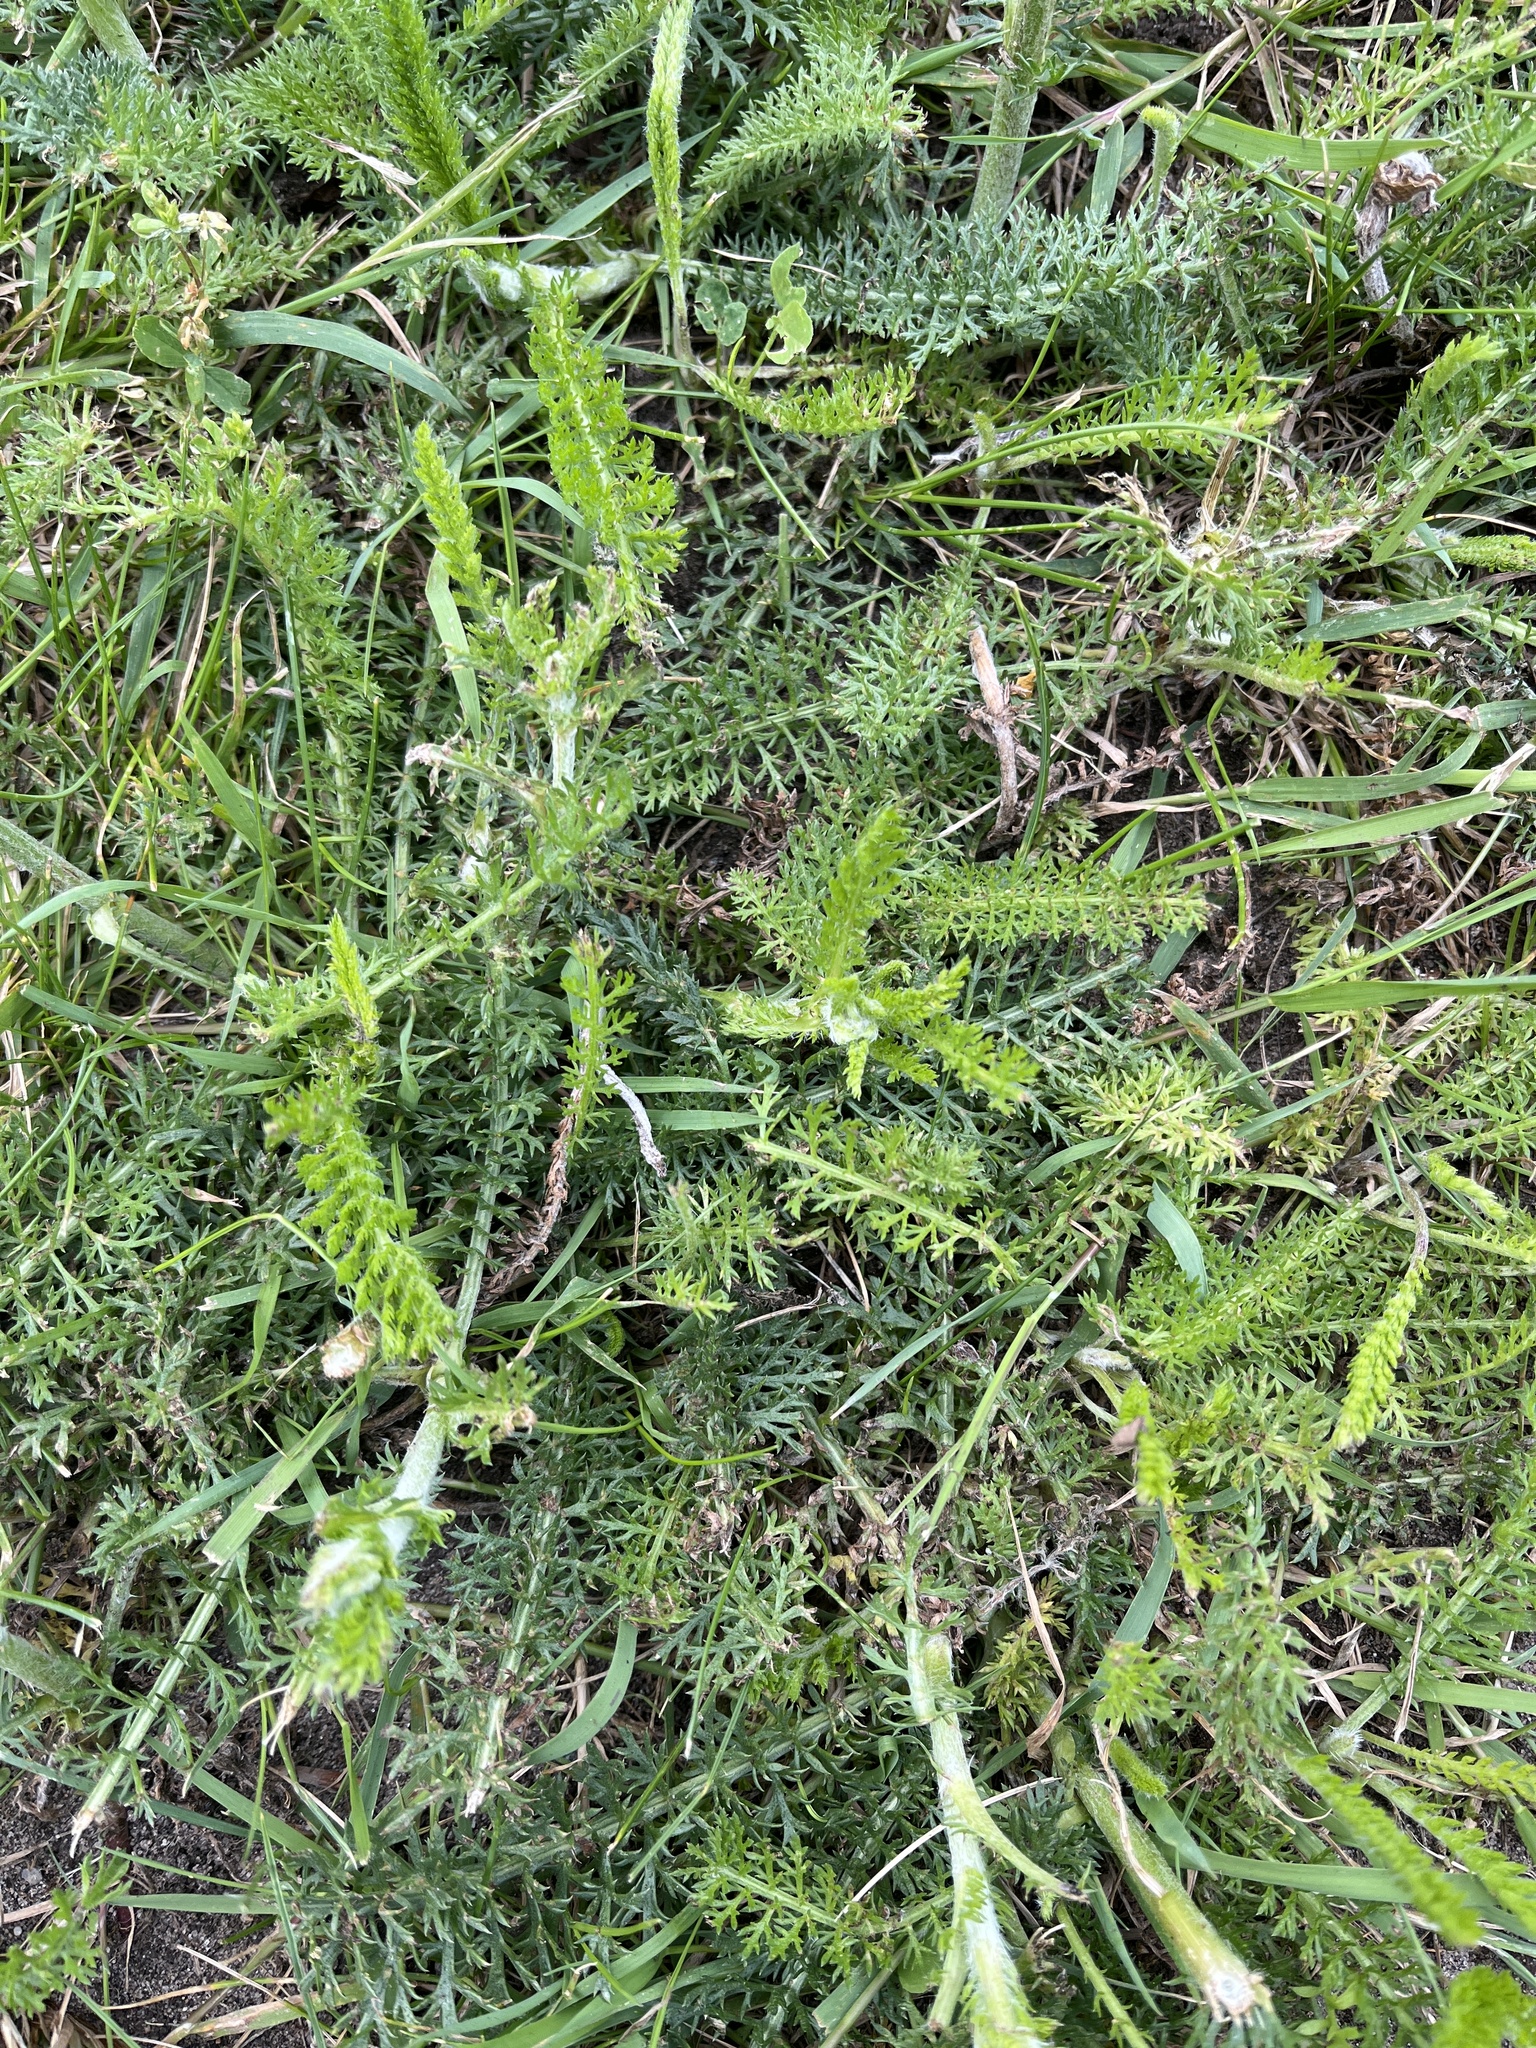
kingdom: Plantae
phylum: Tracheophyta
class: Magnoliopsida
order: Asterales
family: Asteraceae
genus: Achillea
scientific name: Achillea millefolium
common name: Yarrow
